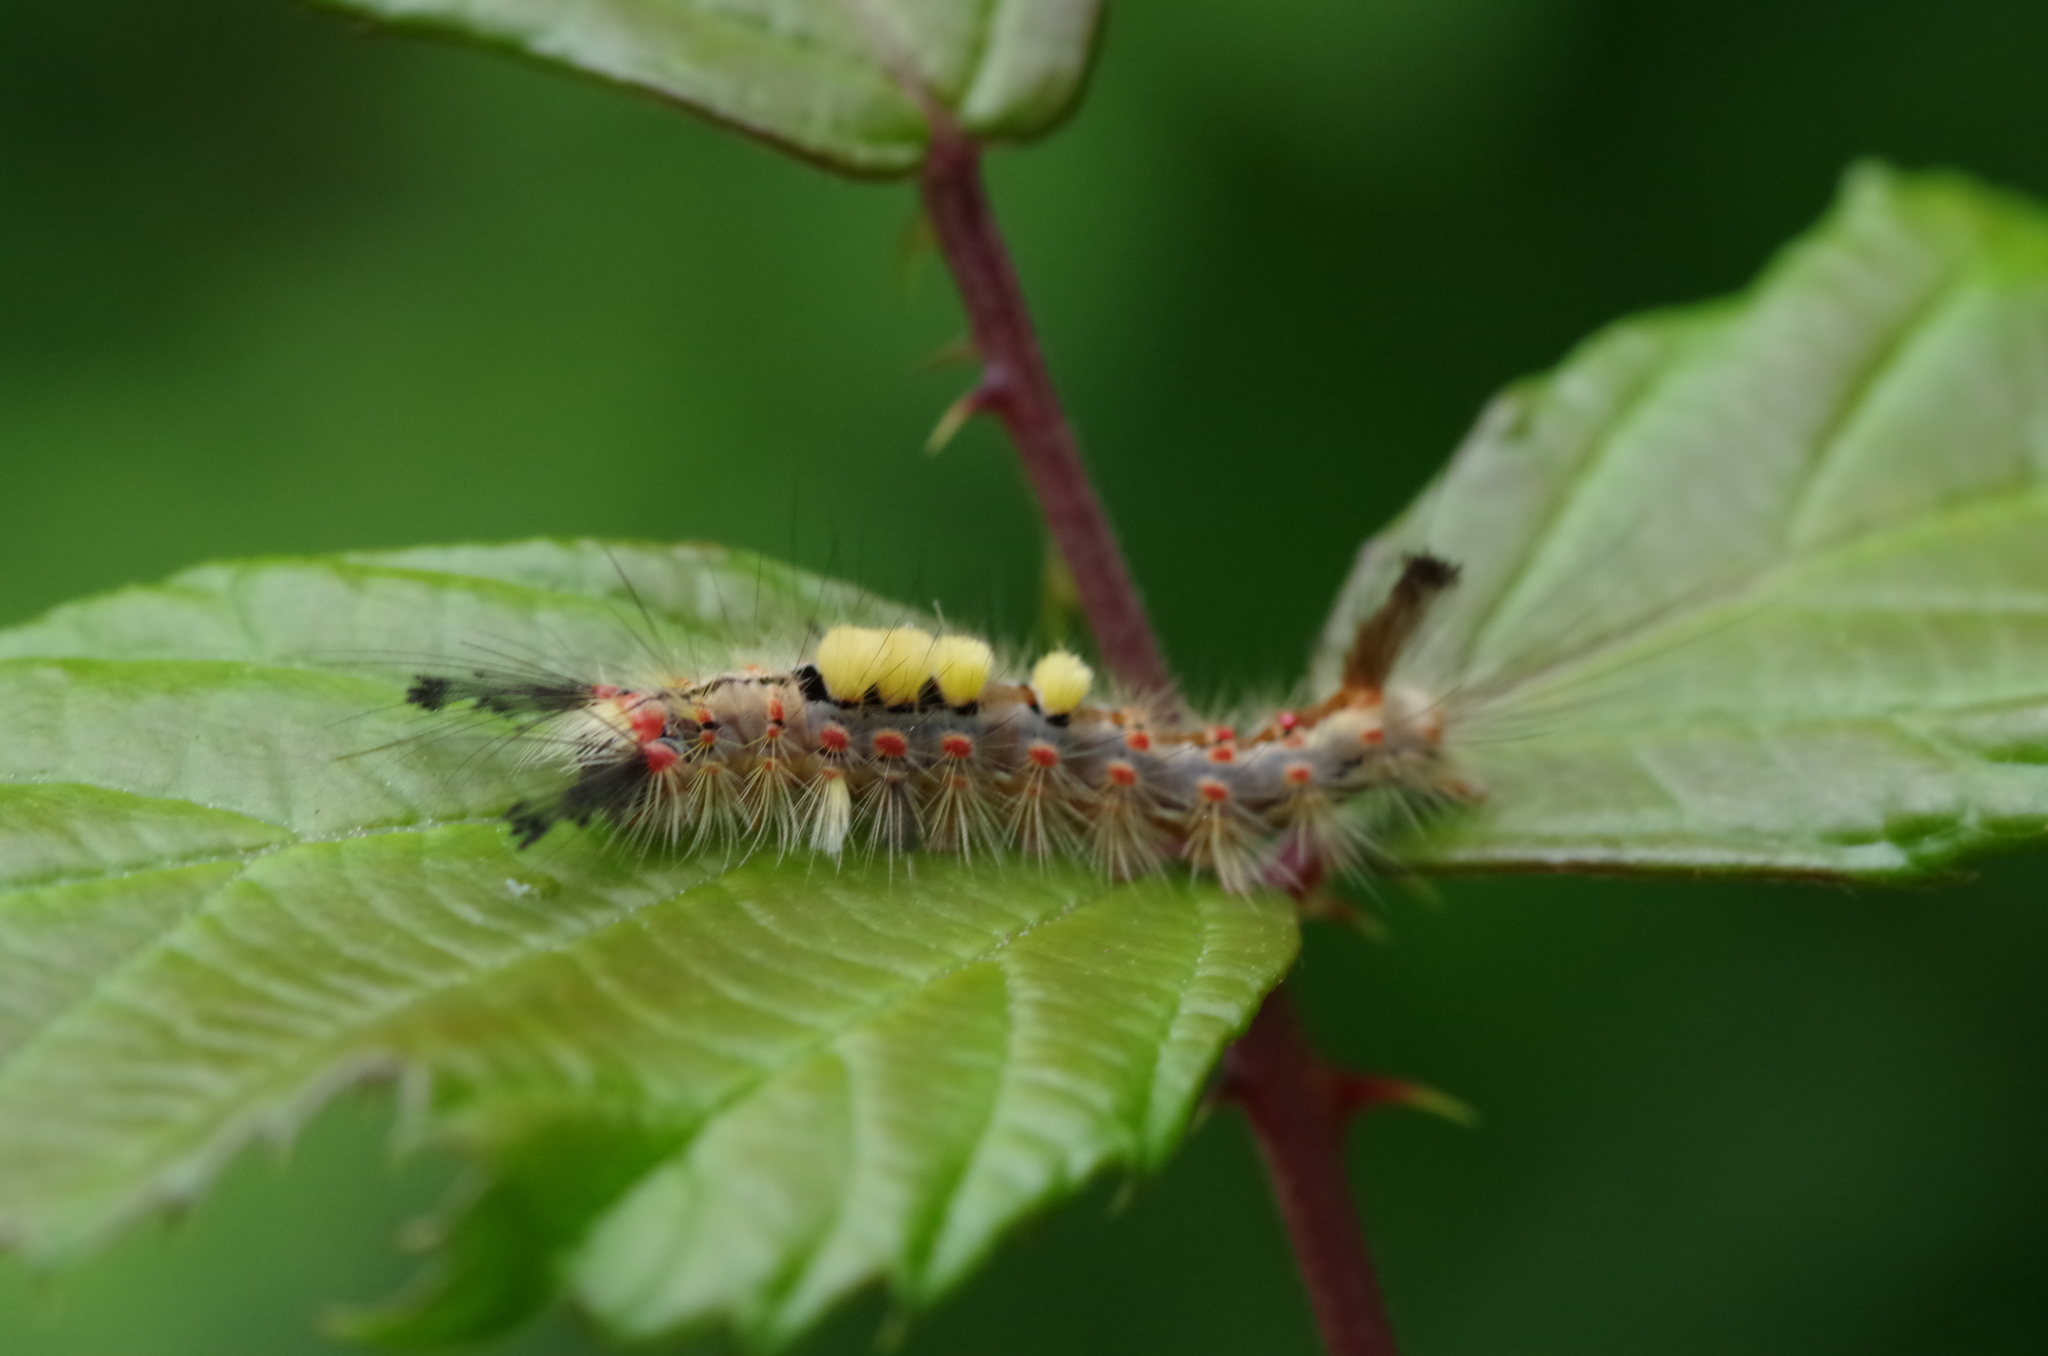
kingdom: Animalia
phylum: Arthropoda
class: Insecta
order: Lepidoptera
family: Erebidae
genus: Orgyia
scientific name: Orgyia antiqua
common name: Vapourer
